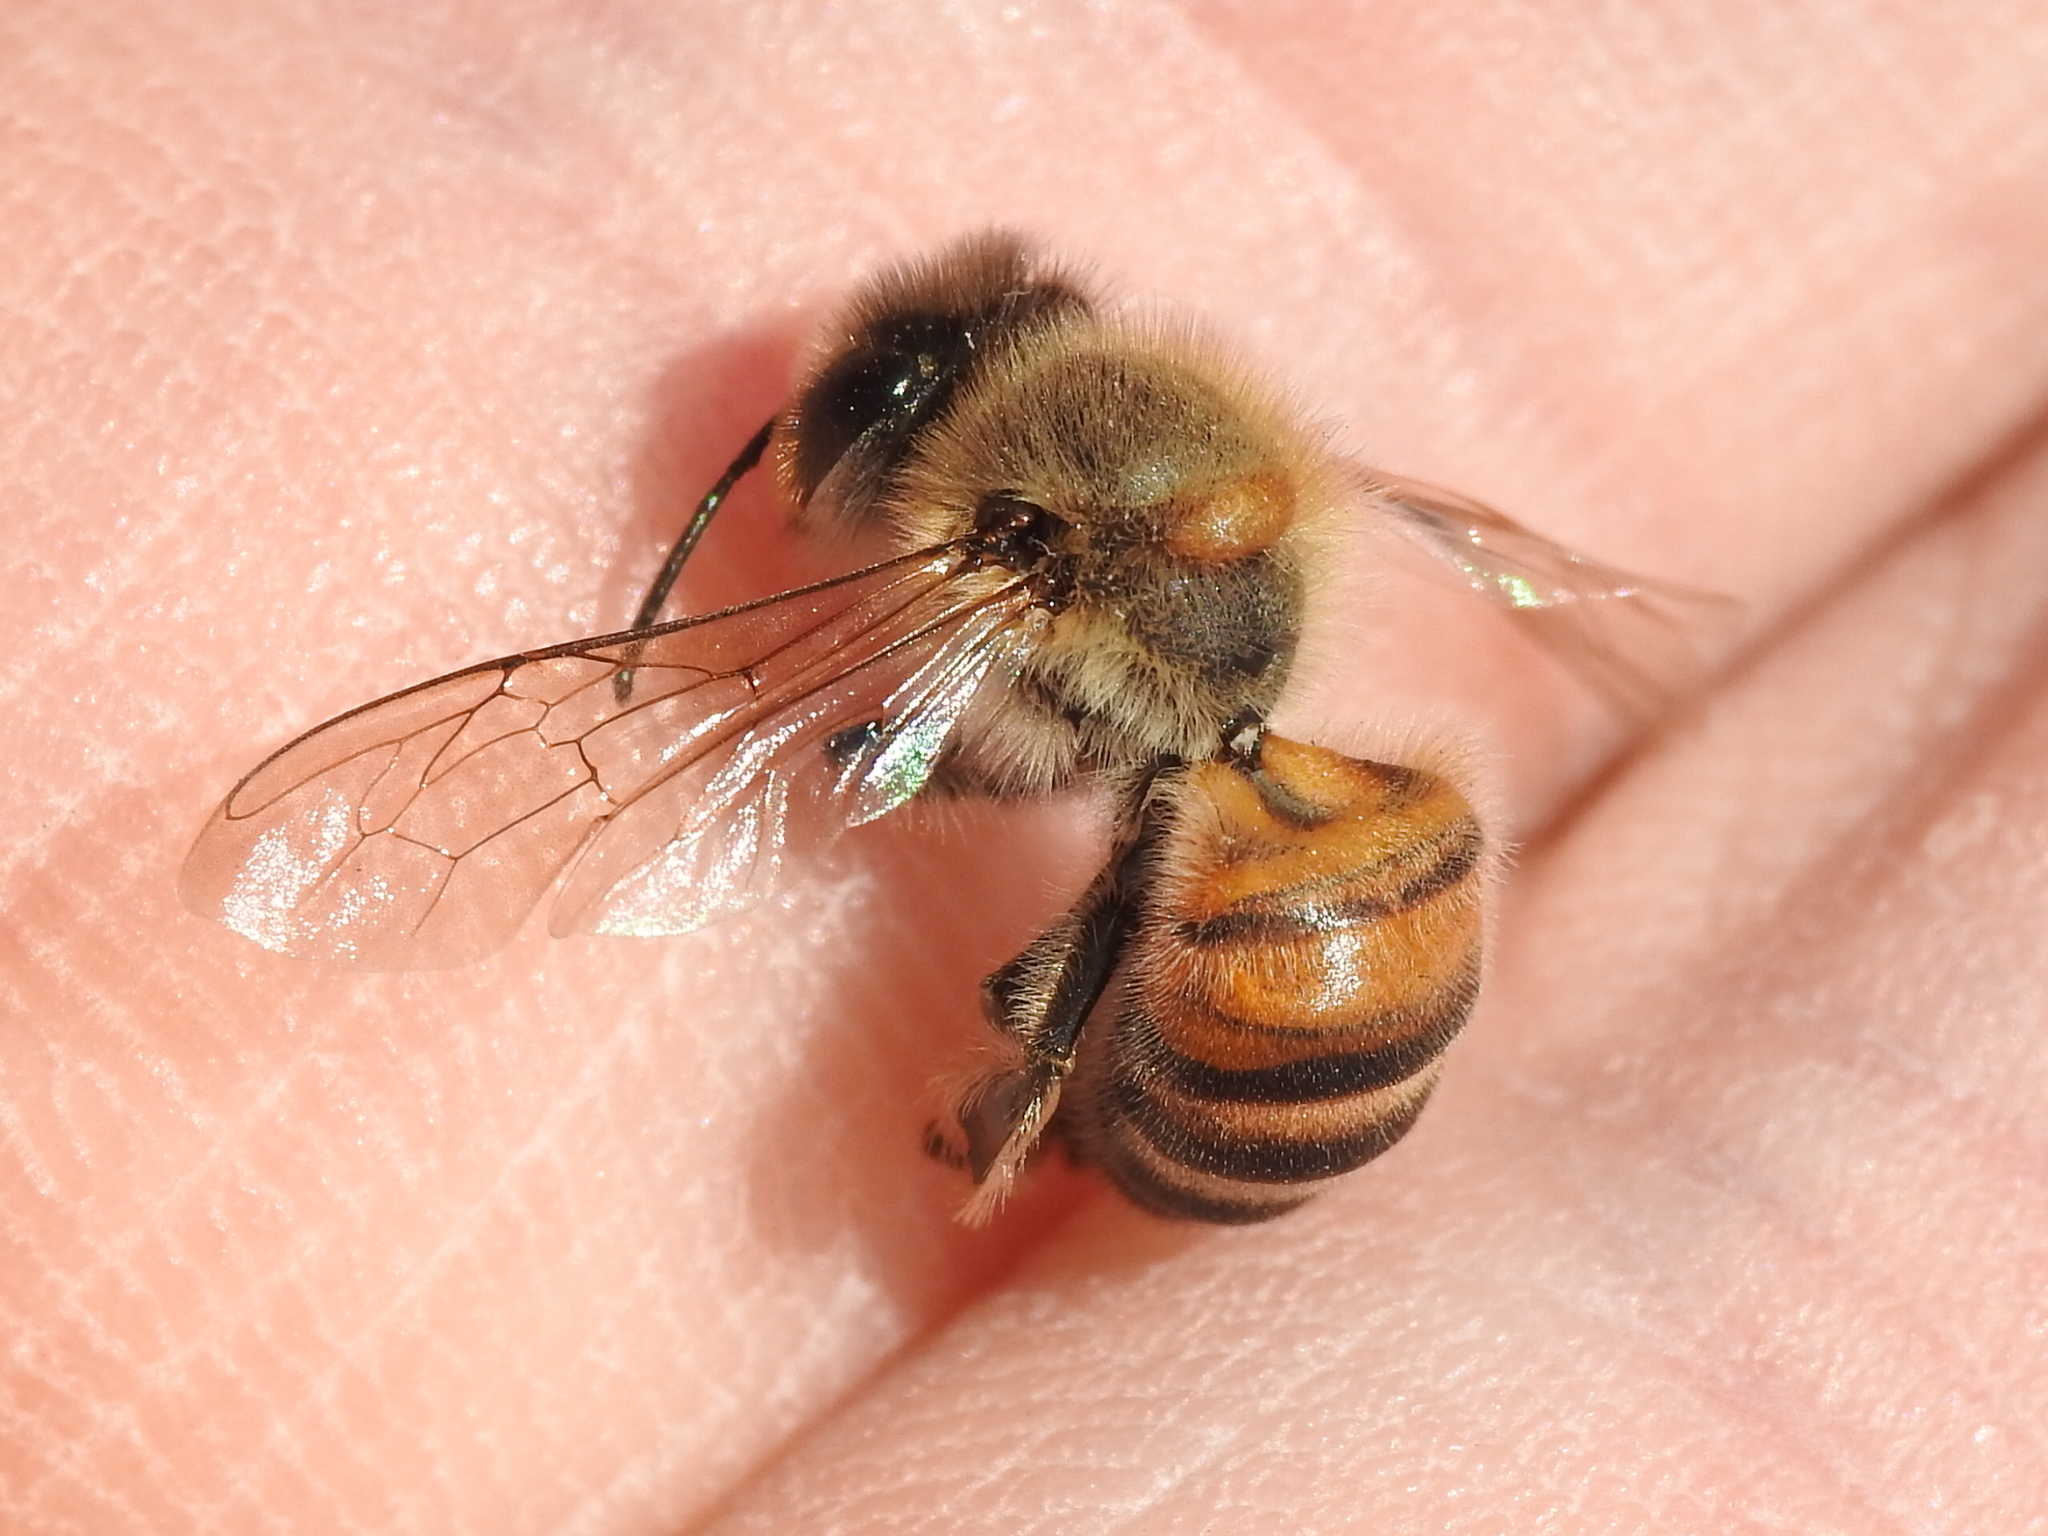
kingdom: Animalia
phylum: Arthropoda
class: Insecta
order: Hymenoptera
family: Apidae
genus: Apis
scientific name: Apis mellifera
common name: Honey bee
